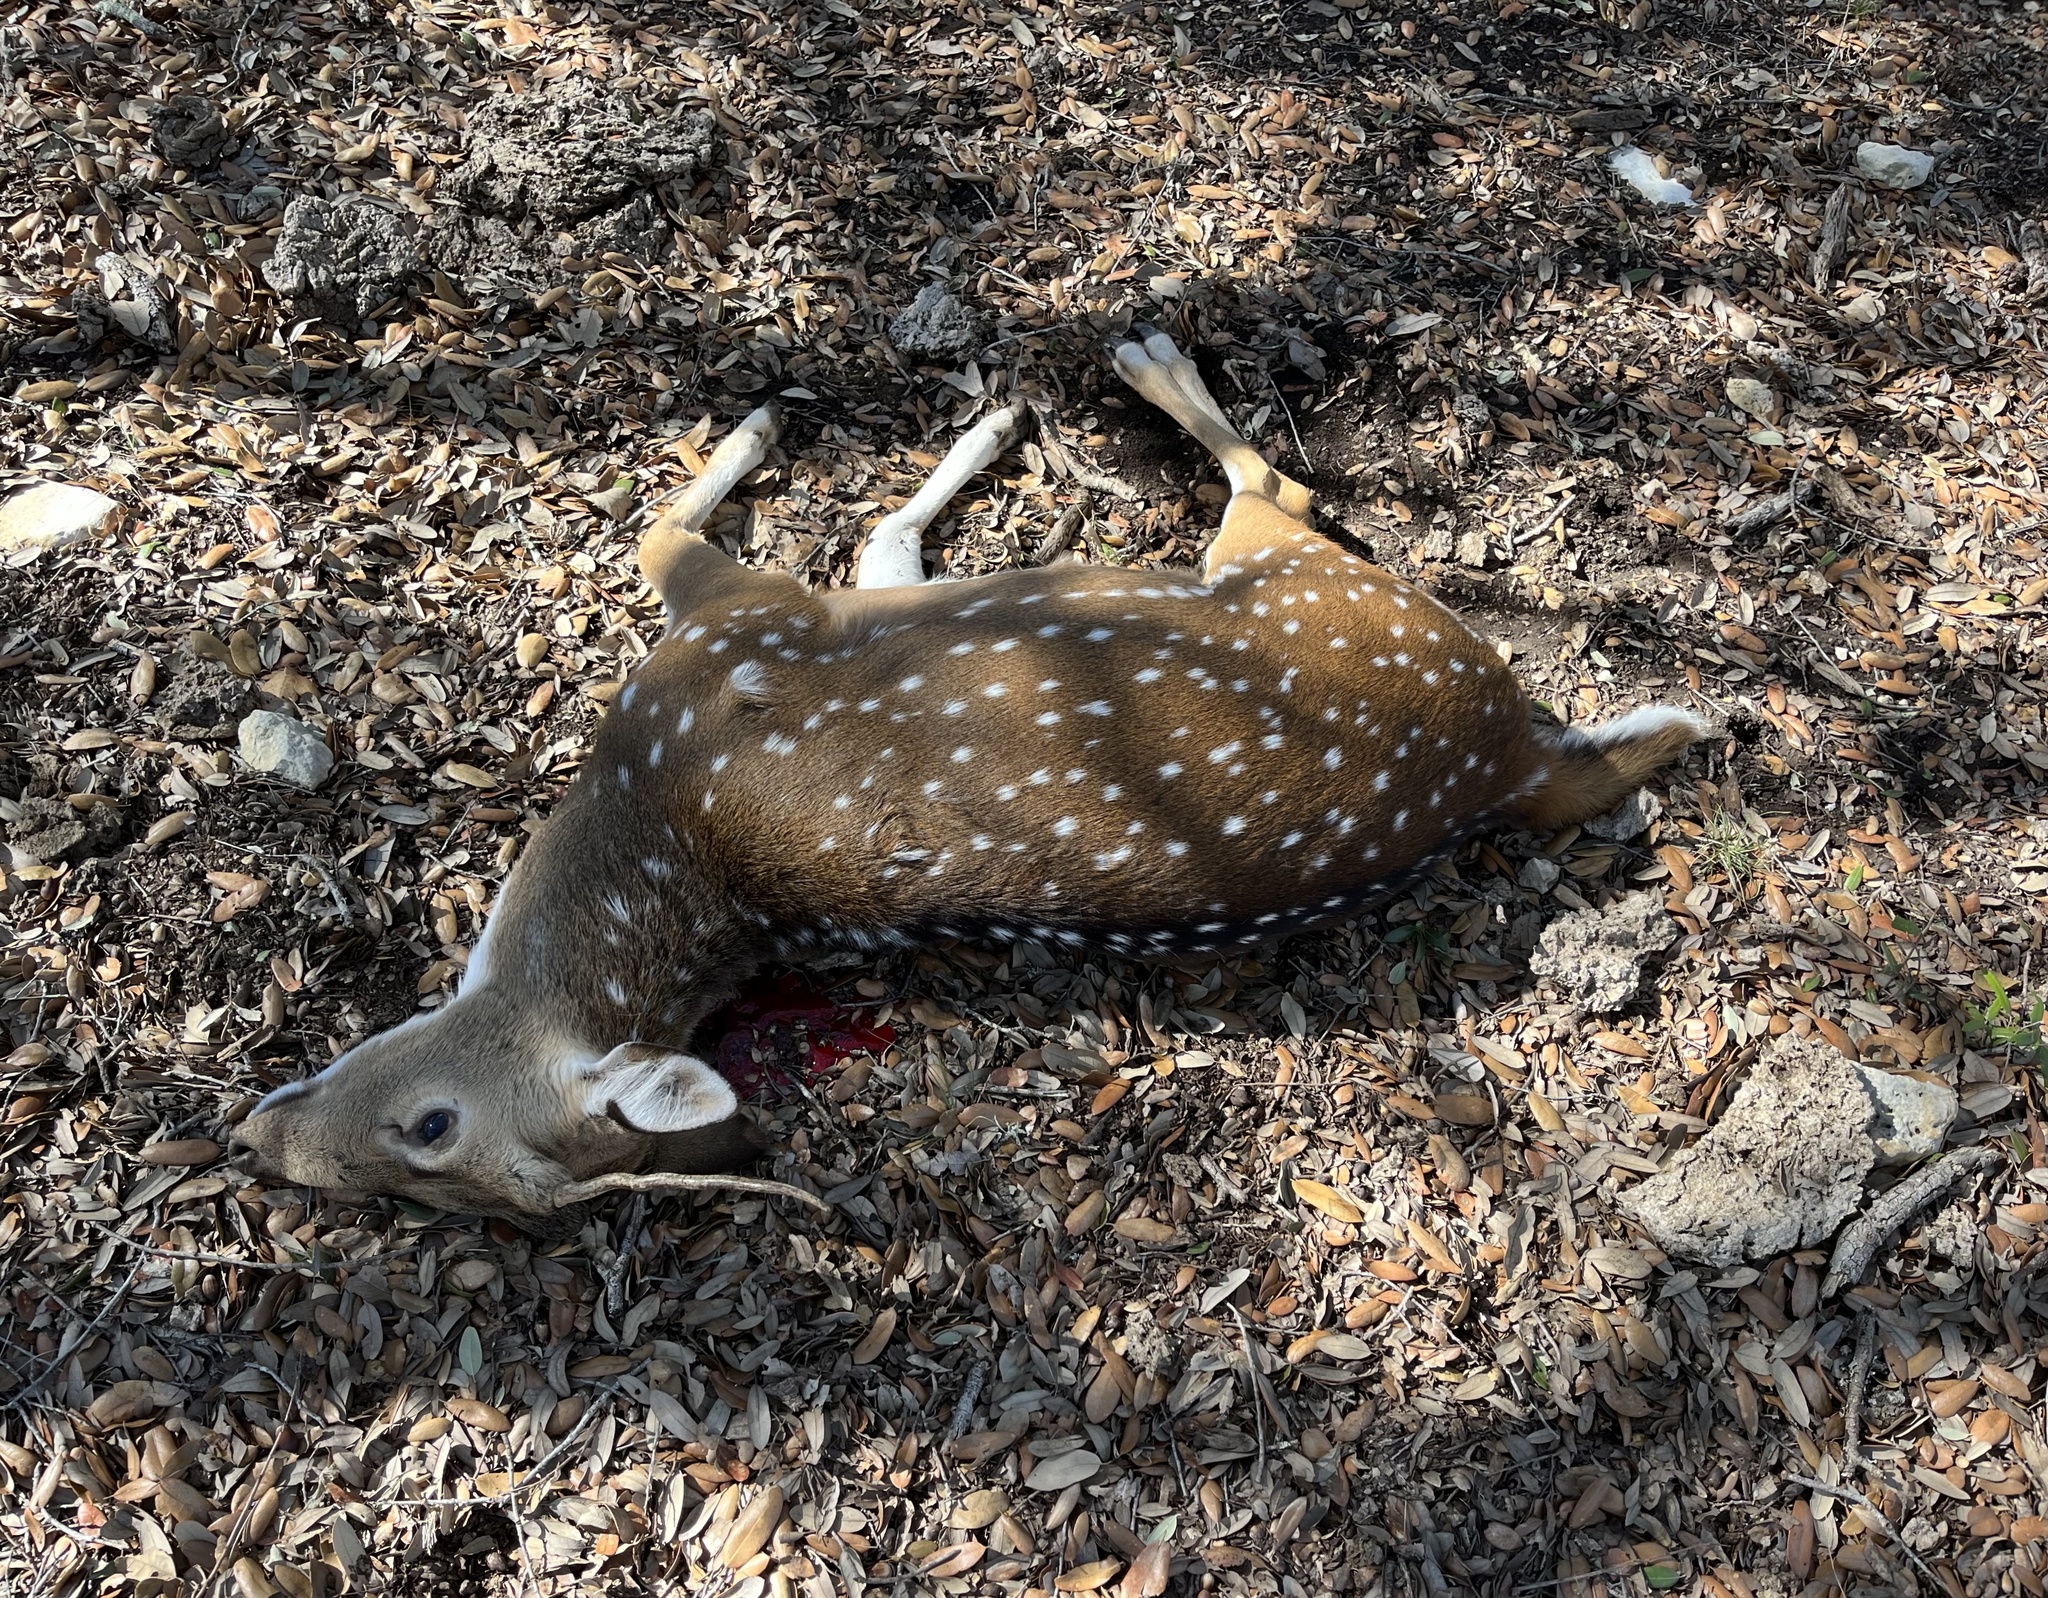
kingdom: Animalia
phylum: Chordata
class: Mammalia
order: Artiodactyla
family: Cervidae
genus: Axis
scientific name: Axis axis
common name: Chital
